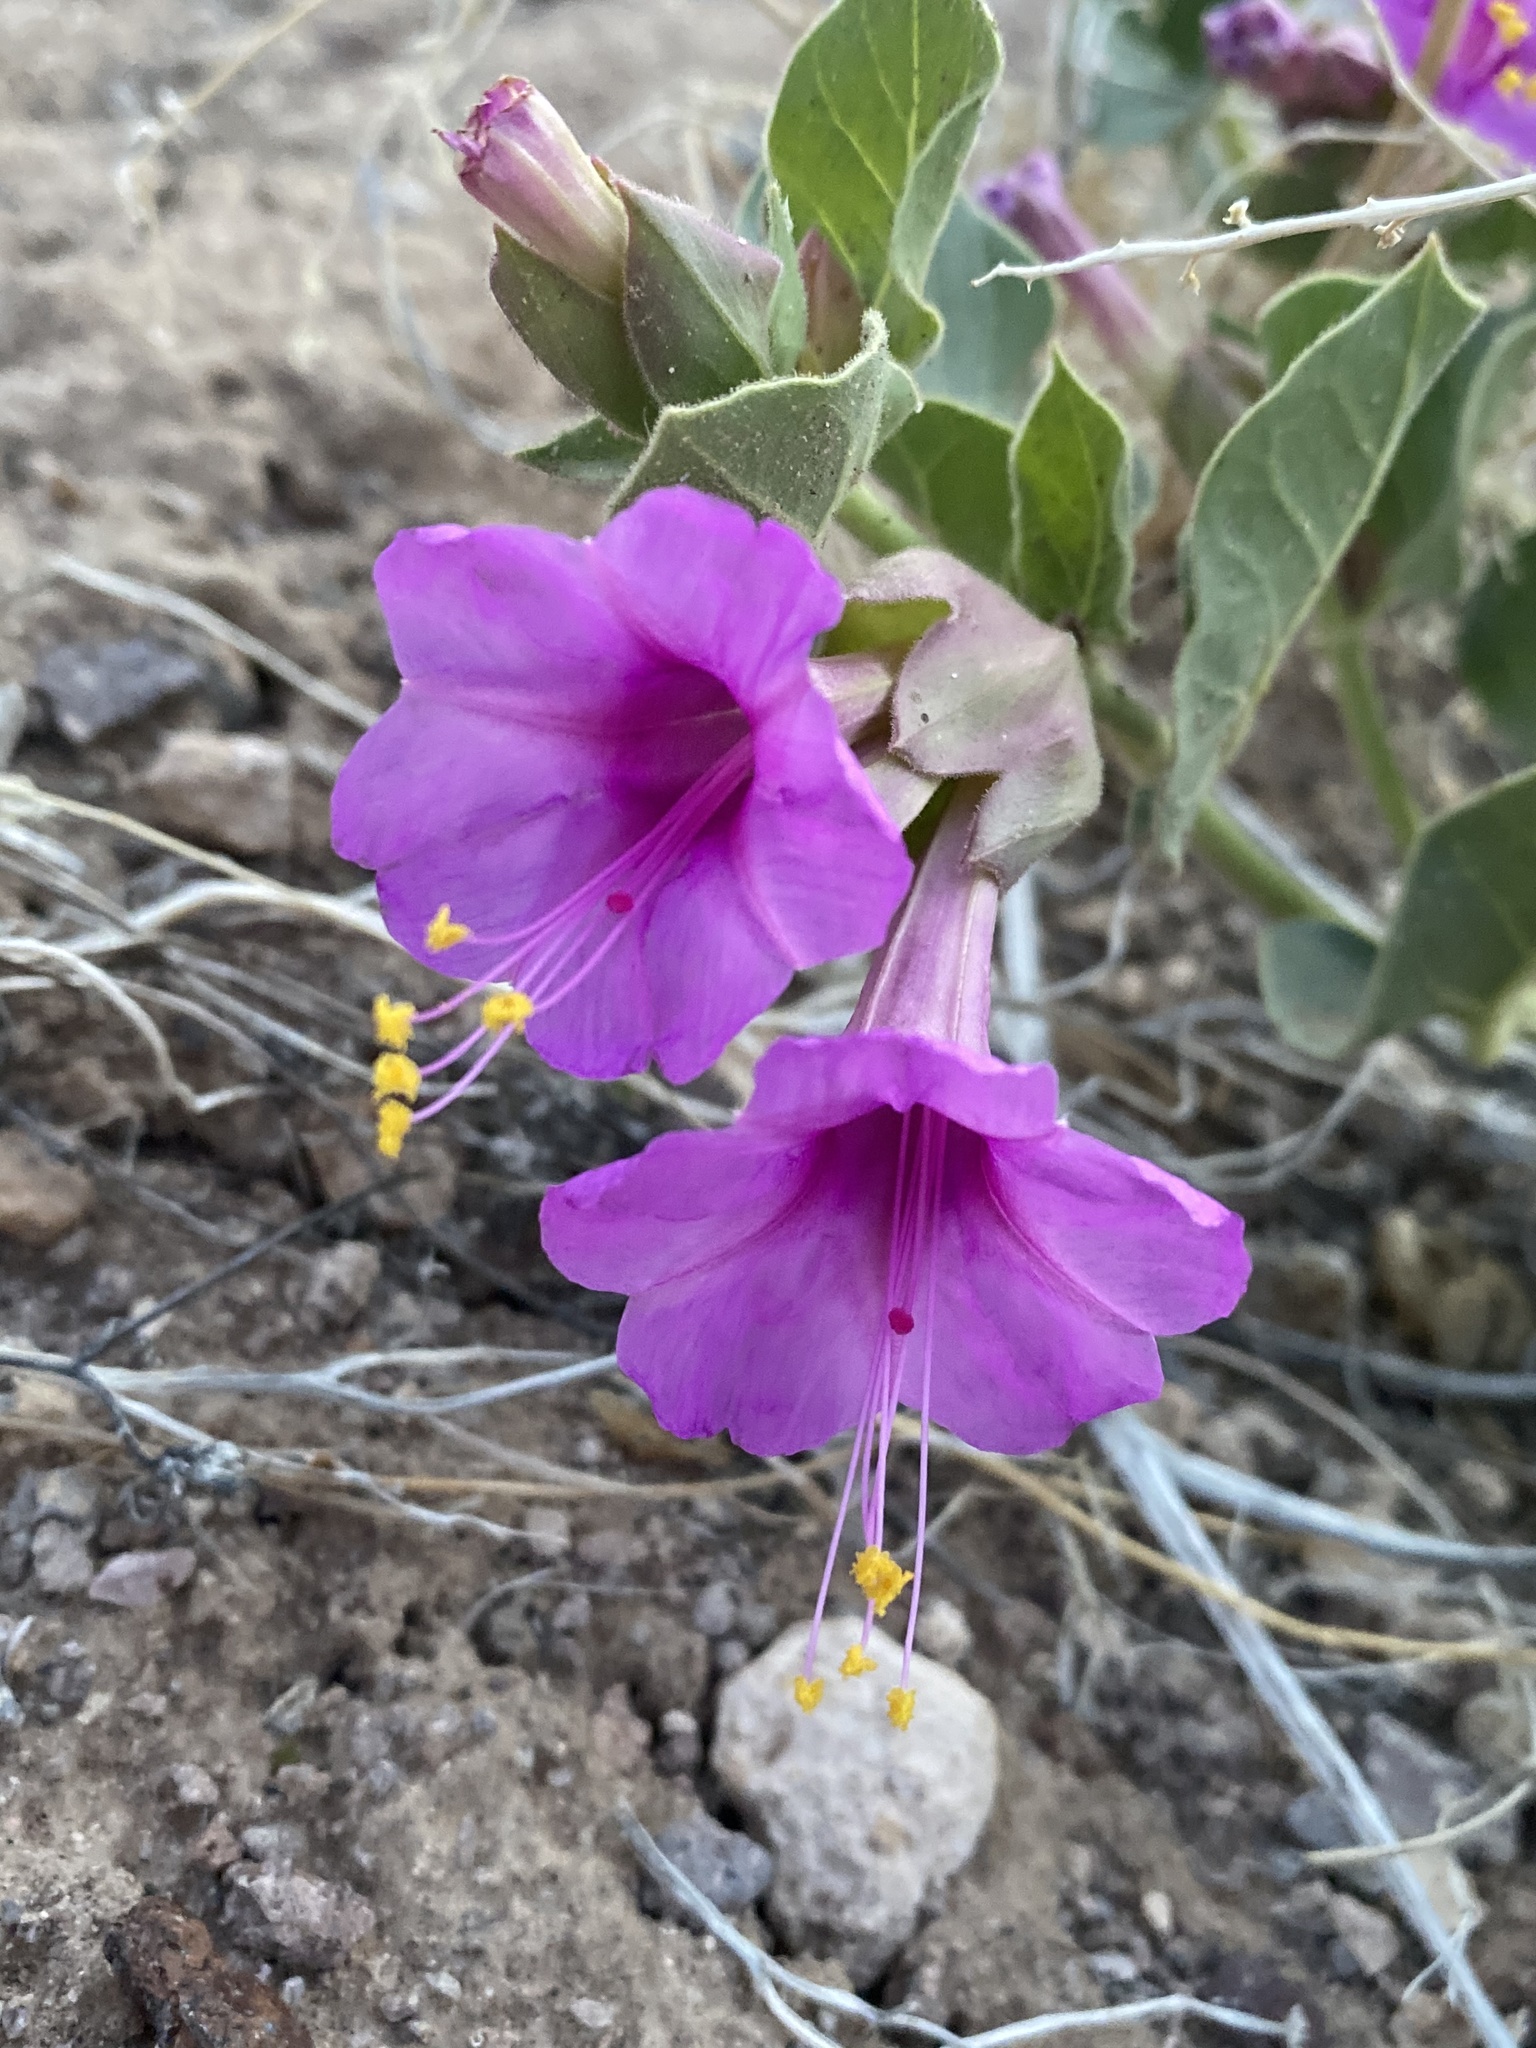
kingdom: Plantae
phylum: Tracheophyta
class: Magnoliopsida
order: Caryophyllales
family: Nyctaginaceae
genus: Mirabilis
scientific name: Mirabilis multiflora
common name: Froebel's four-o'clock
